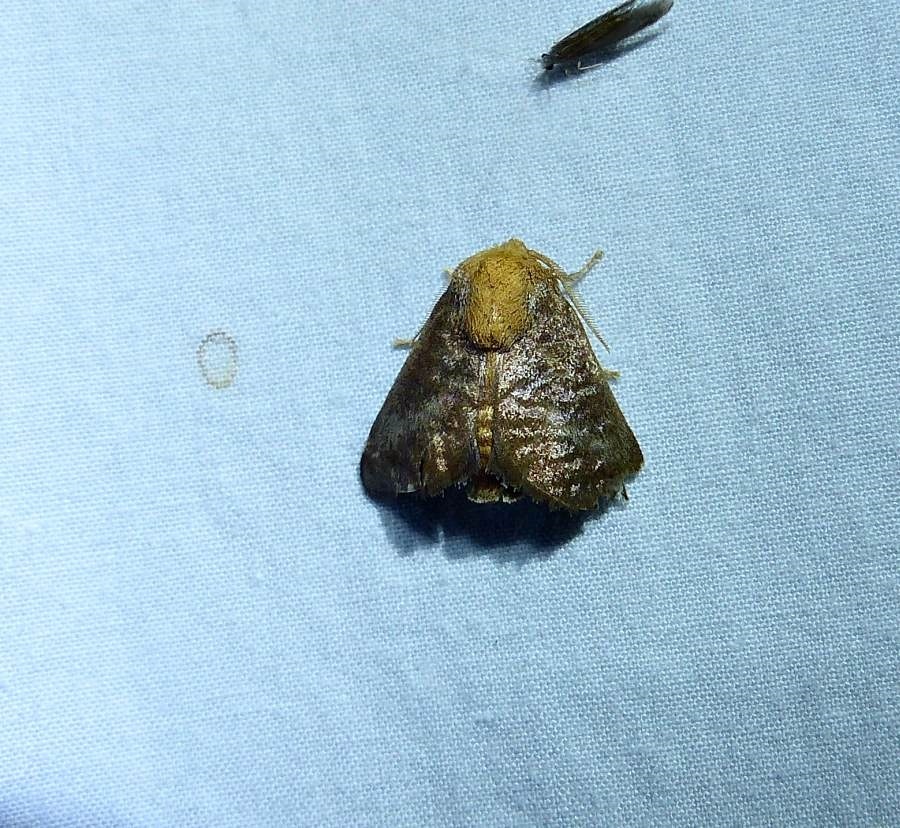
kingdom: Animalia
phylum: Arthropoda
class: Insecta
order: Lepidoptera
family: Limacodidae
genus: Isa
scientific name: Isa textula
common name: Crowned slug moth
